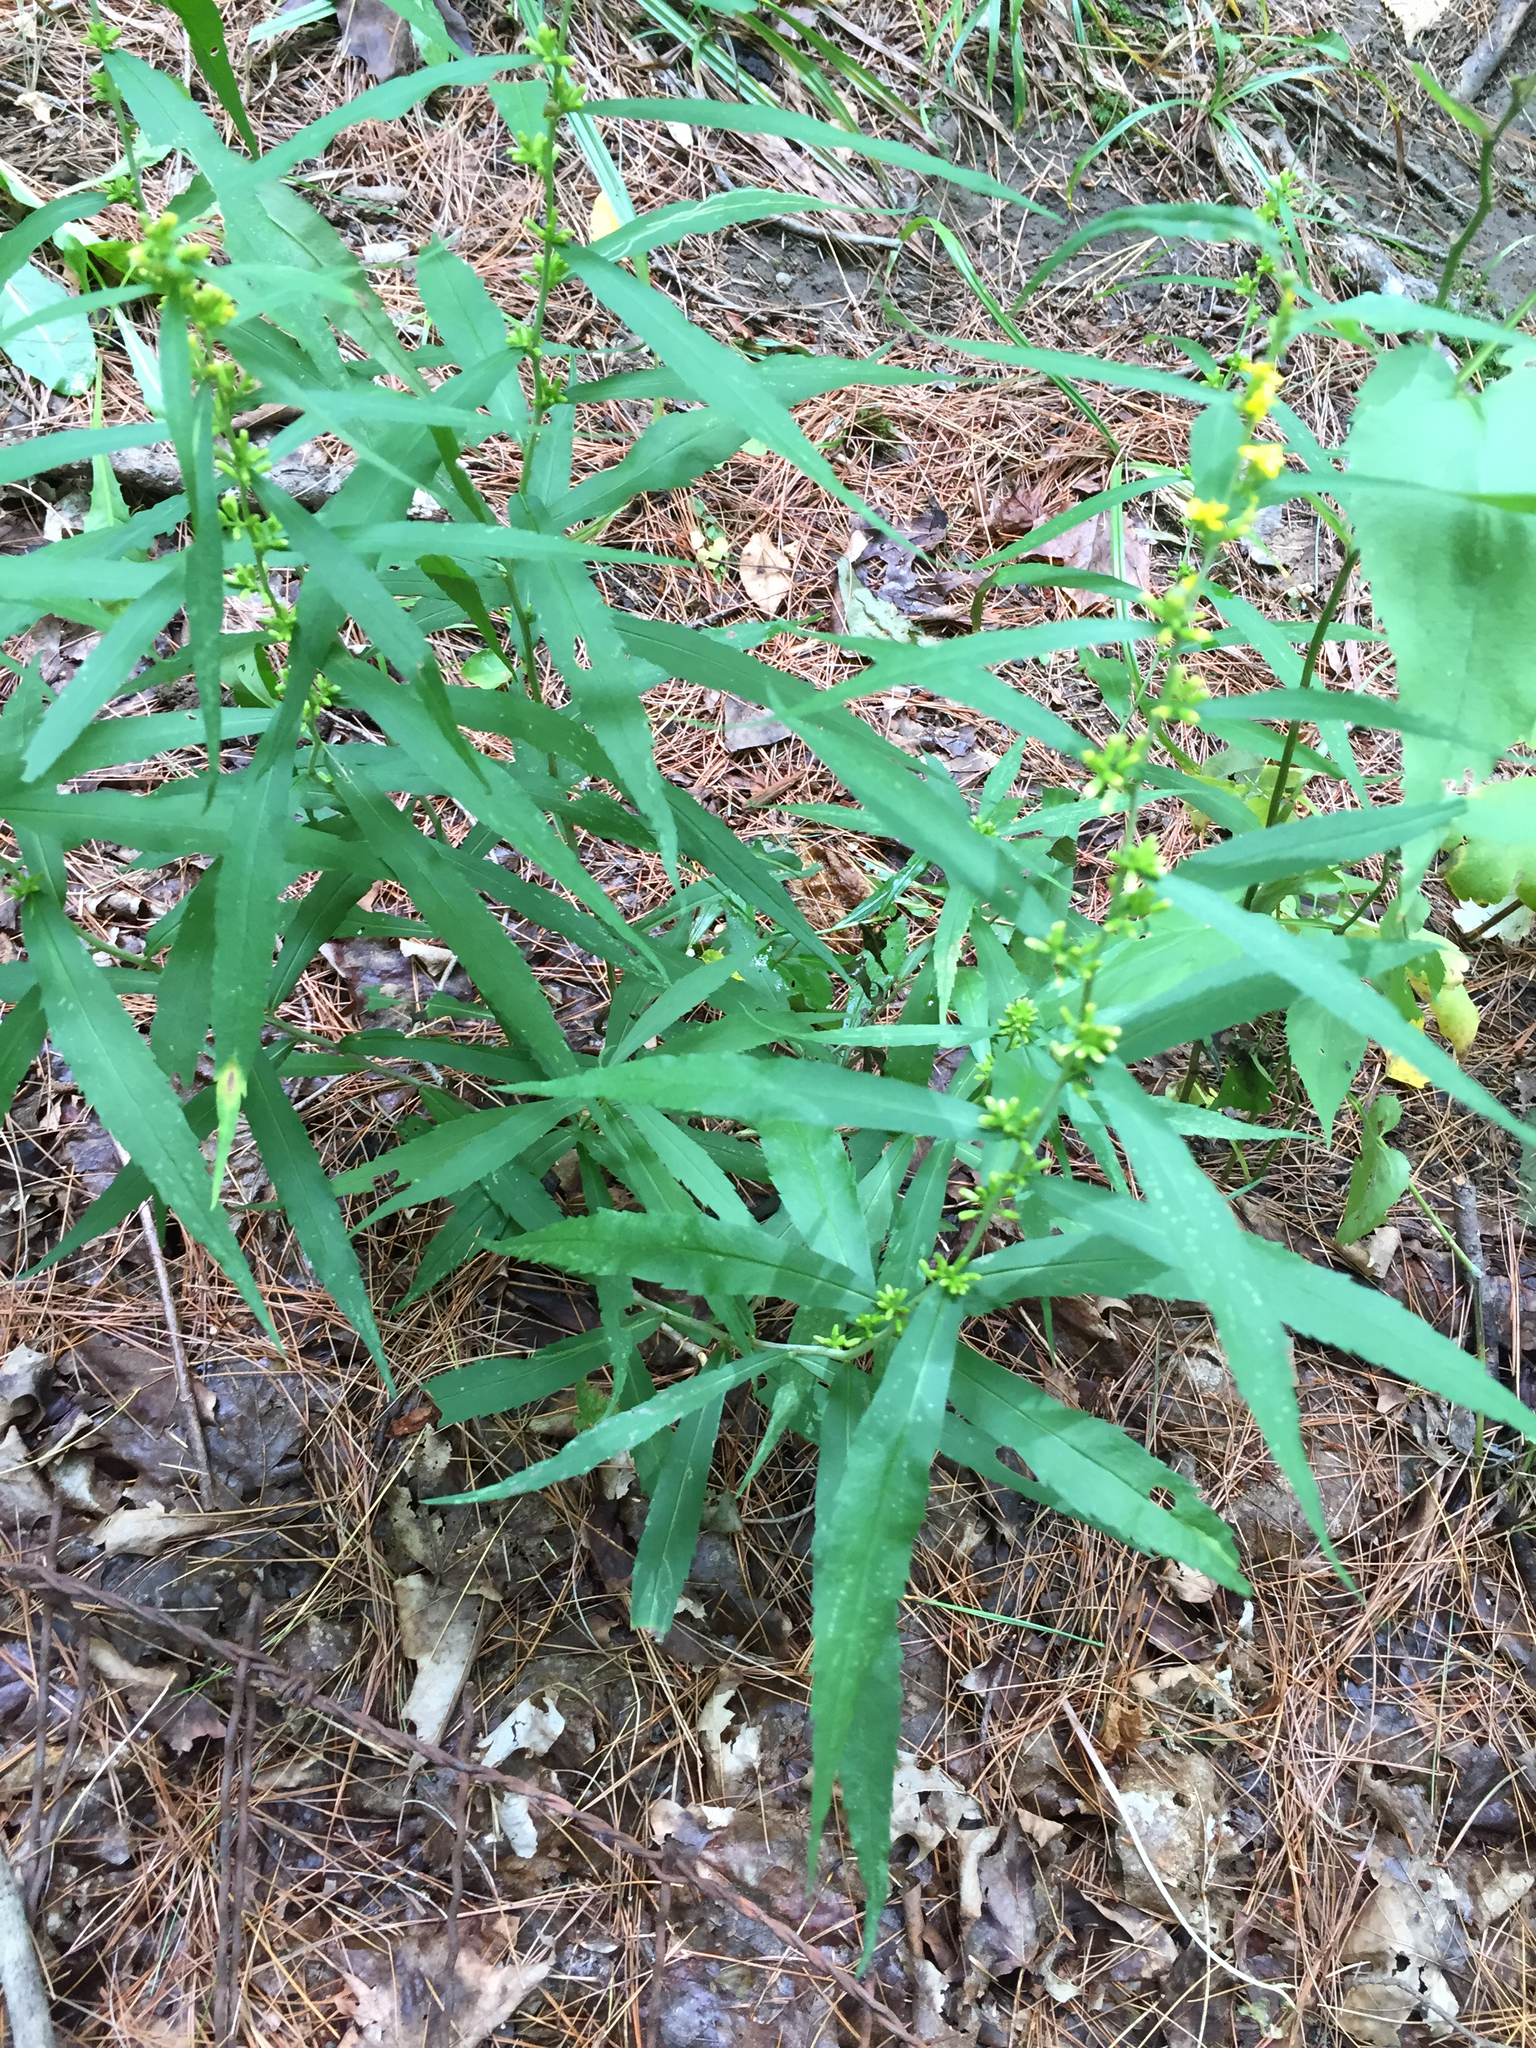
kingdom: Plantae
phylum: Tracheophyta
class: Magnoliopsida
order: Asterales
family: Asteraceae
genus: Solidago
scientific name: Solidago caesia
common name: Woodland goldenrod
